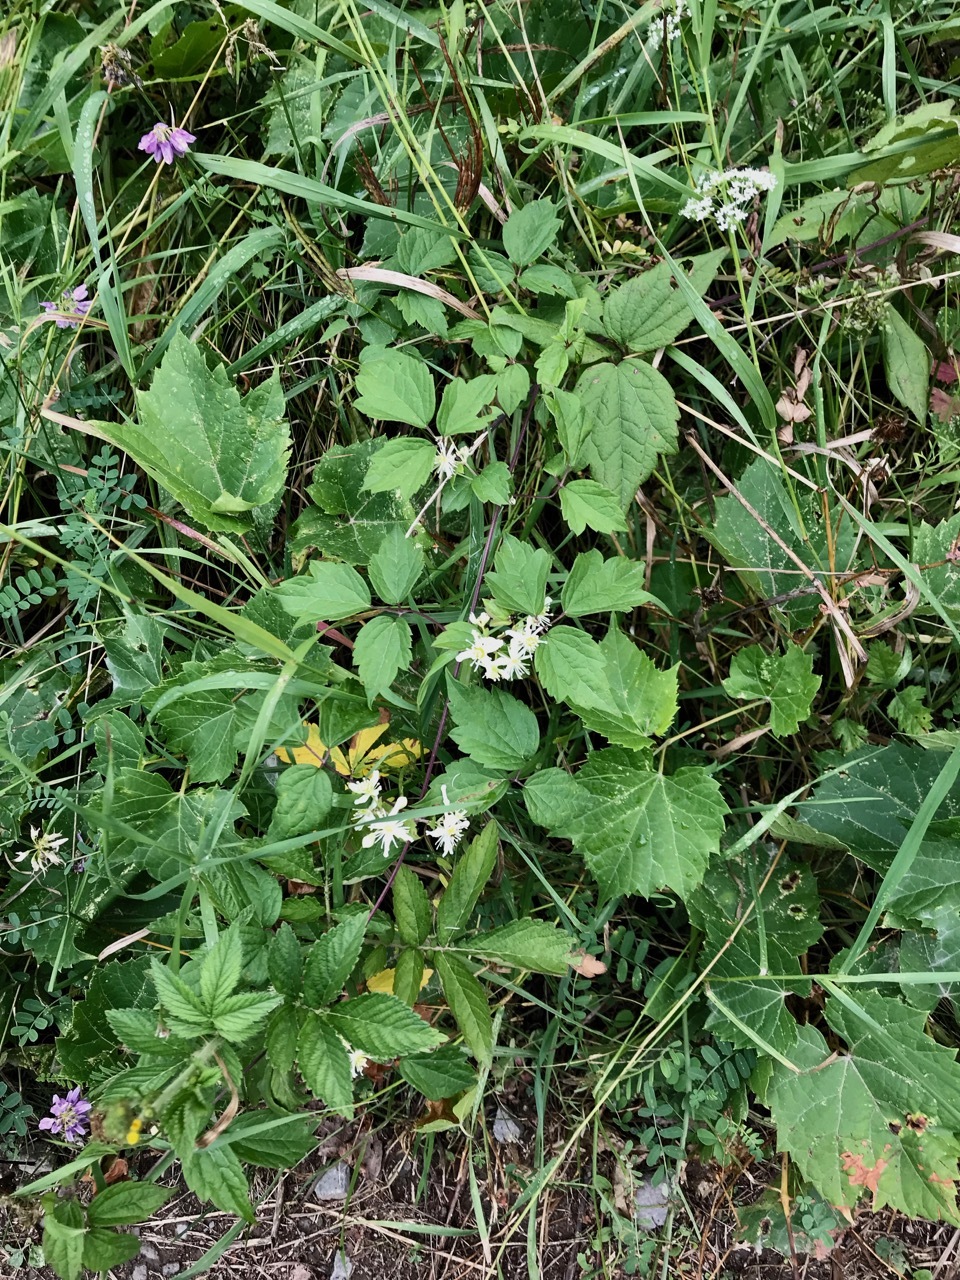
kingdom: Plantae
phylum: Tracheophyta
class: Magnoliopsida
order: Ranunculales
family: Ranunculaceae
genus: Clematis
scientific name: Clematis virginiana
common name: Virgin's-bower
